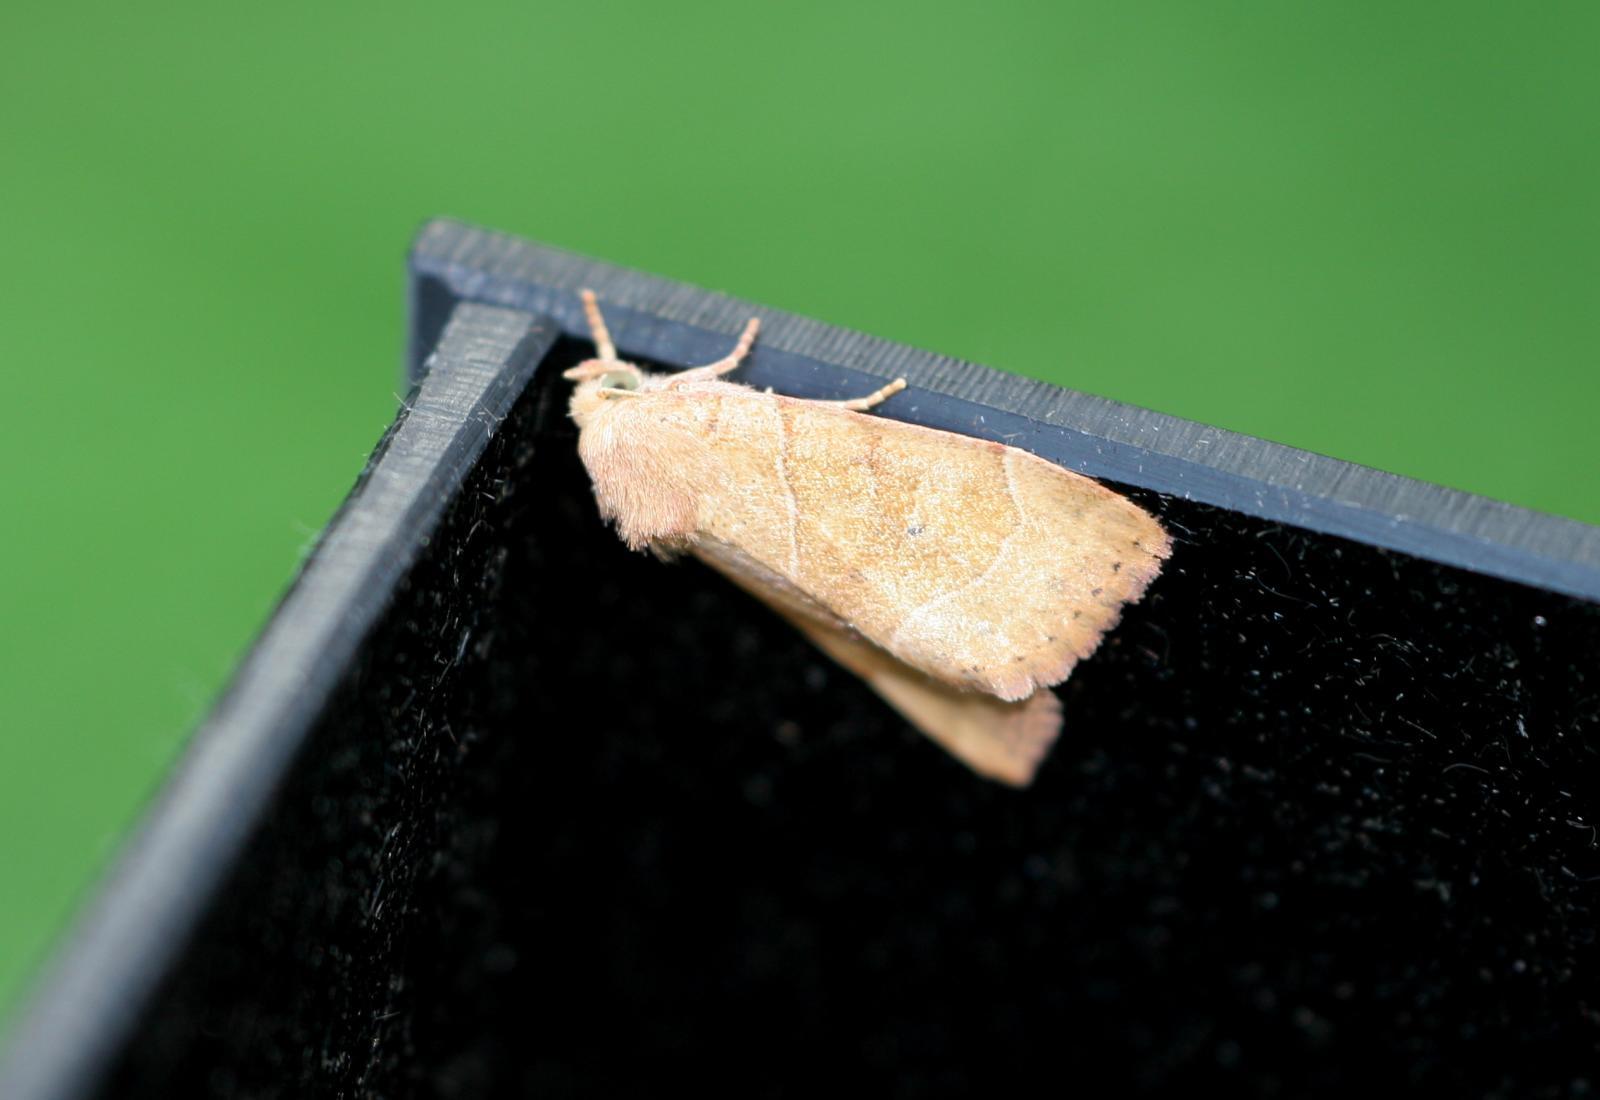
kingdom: Animalia
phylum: Arthropoda
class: Insecta
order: Lepidoptera
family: Noctuidae
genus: Cosmia
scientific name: Cosmia trapezina
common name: Dun-bar
